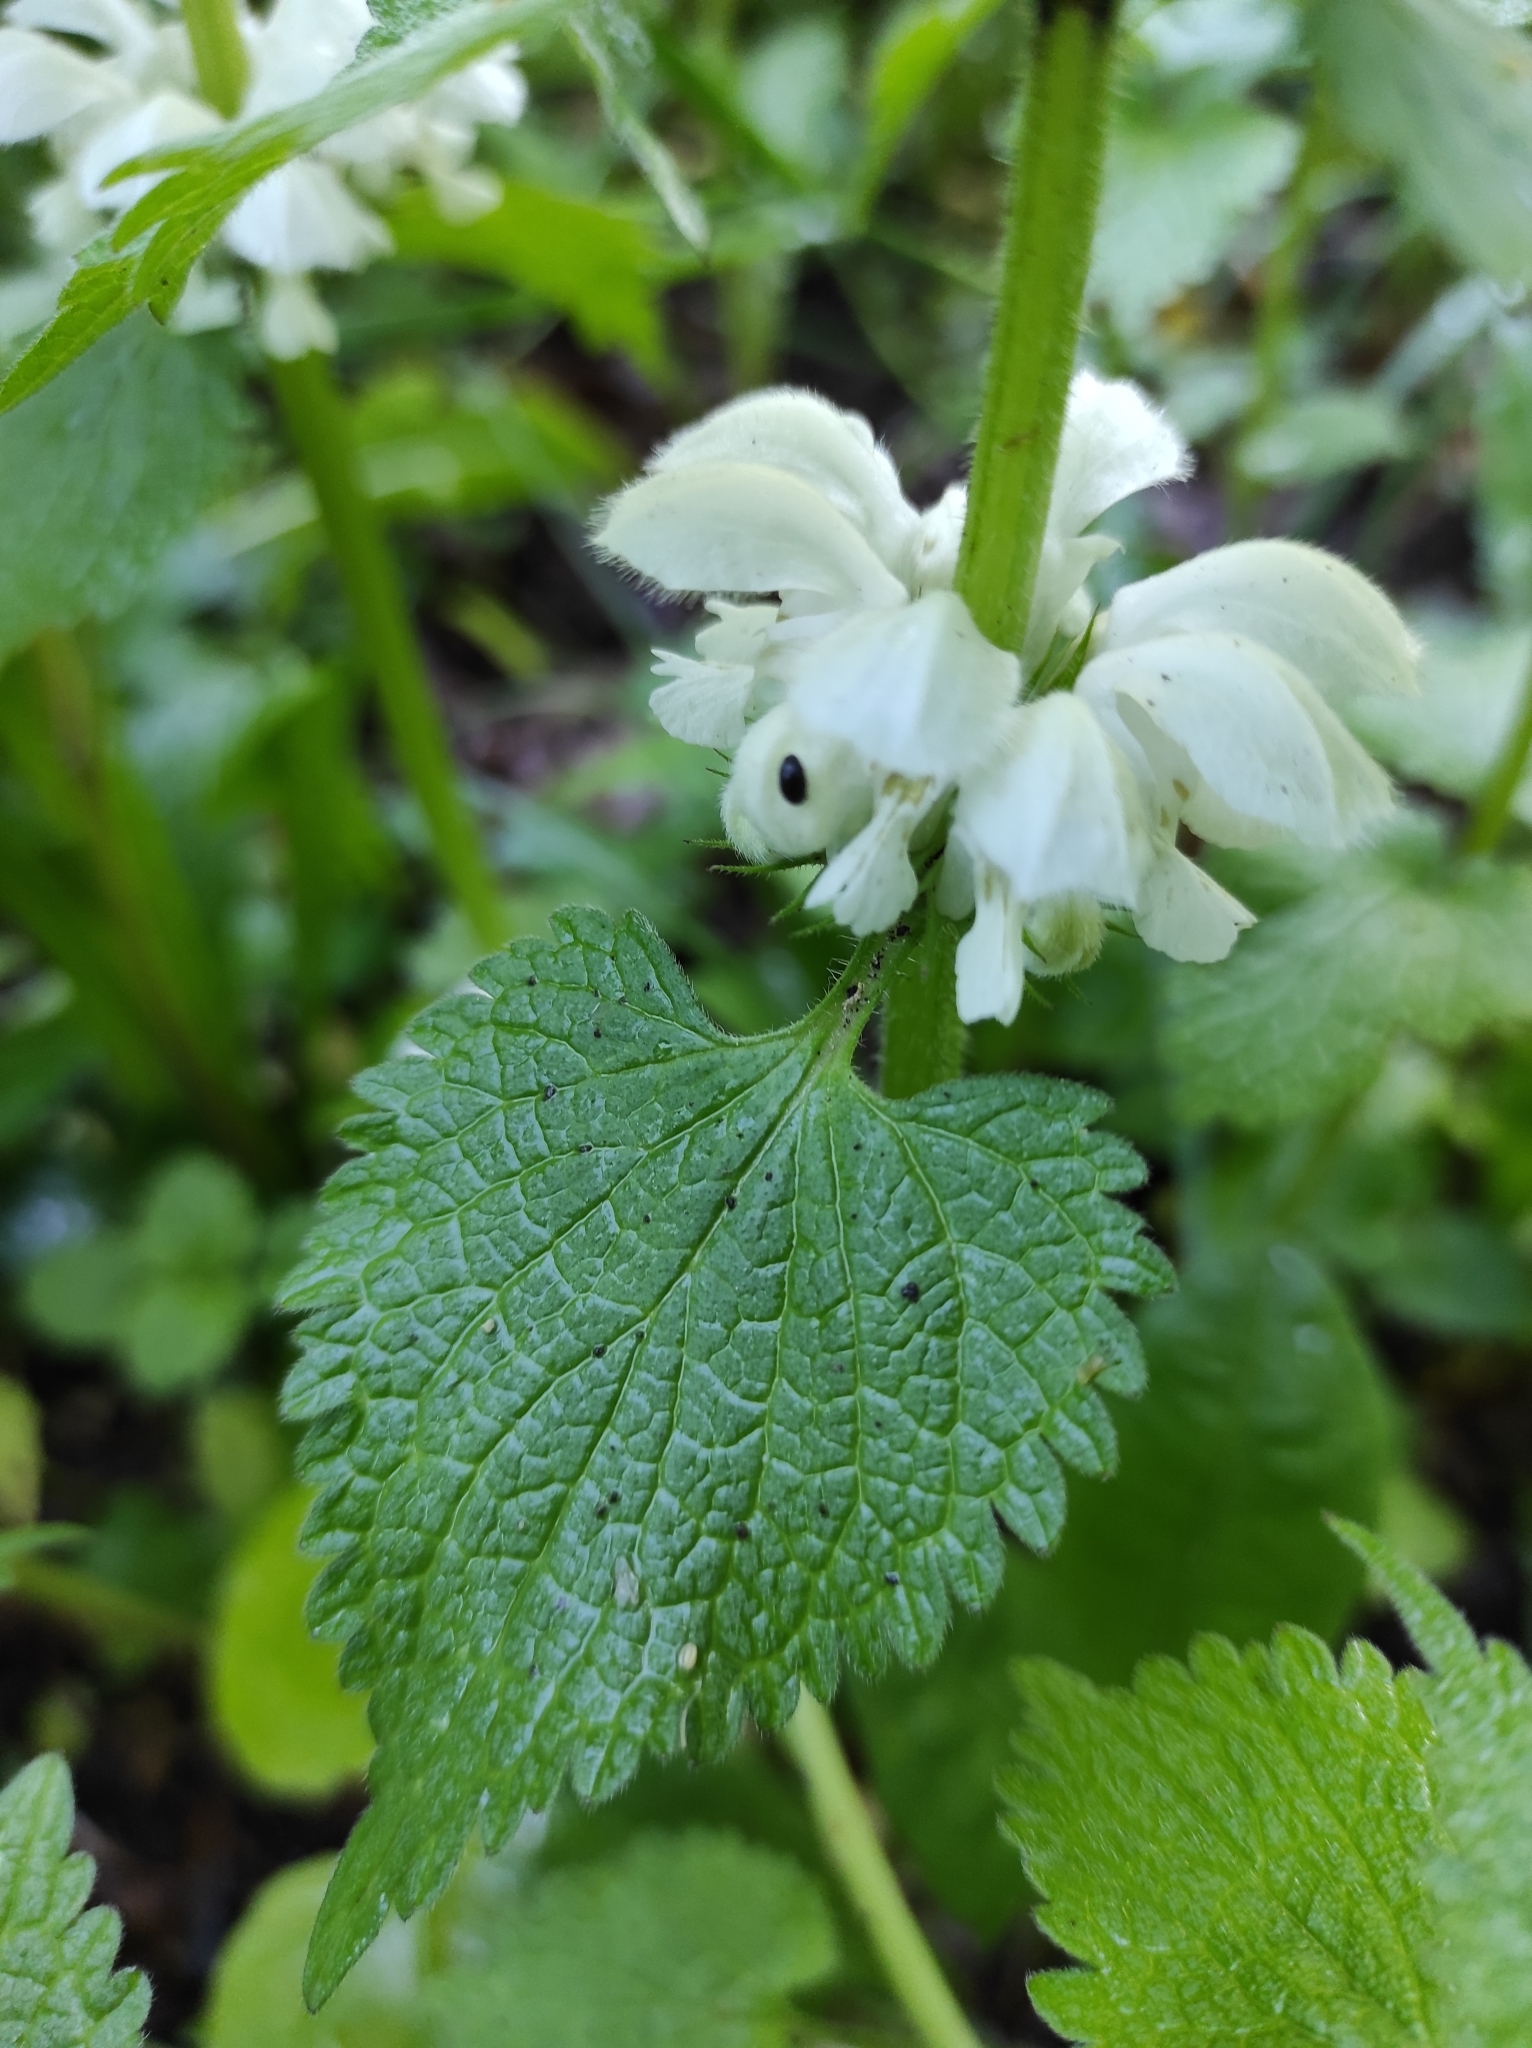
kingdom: Plantae
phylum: Tracheophyta
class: Magnoliopsida
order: Lamiales
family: Lamiaceae
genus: Lamium
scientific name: Lamium album
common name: White dead-nettle
